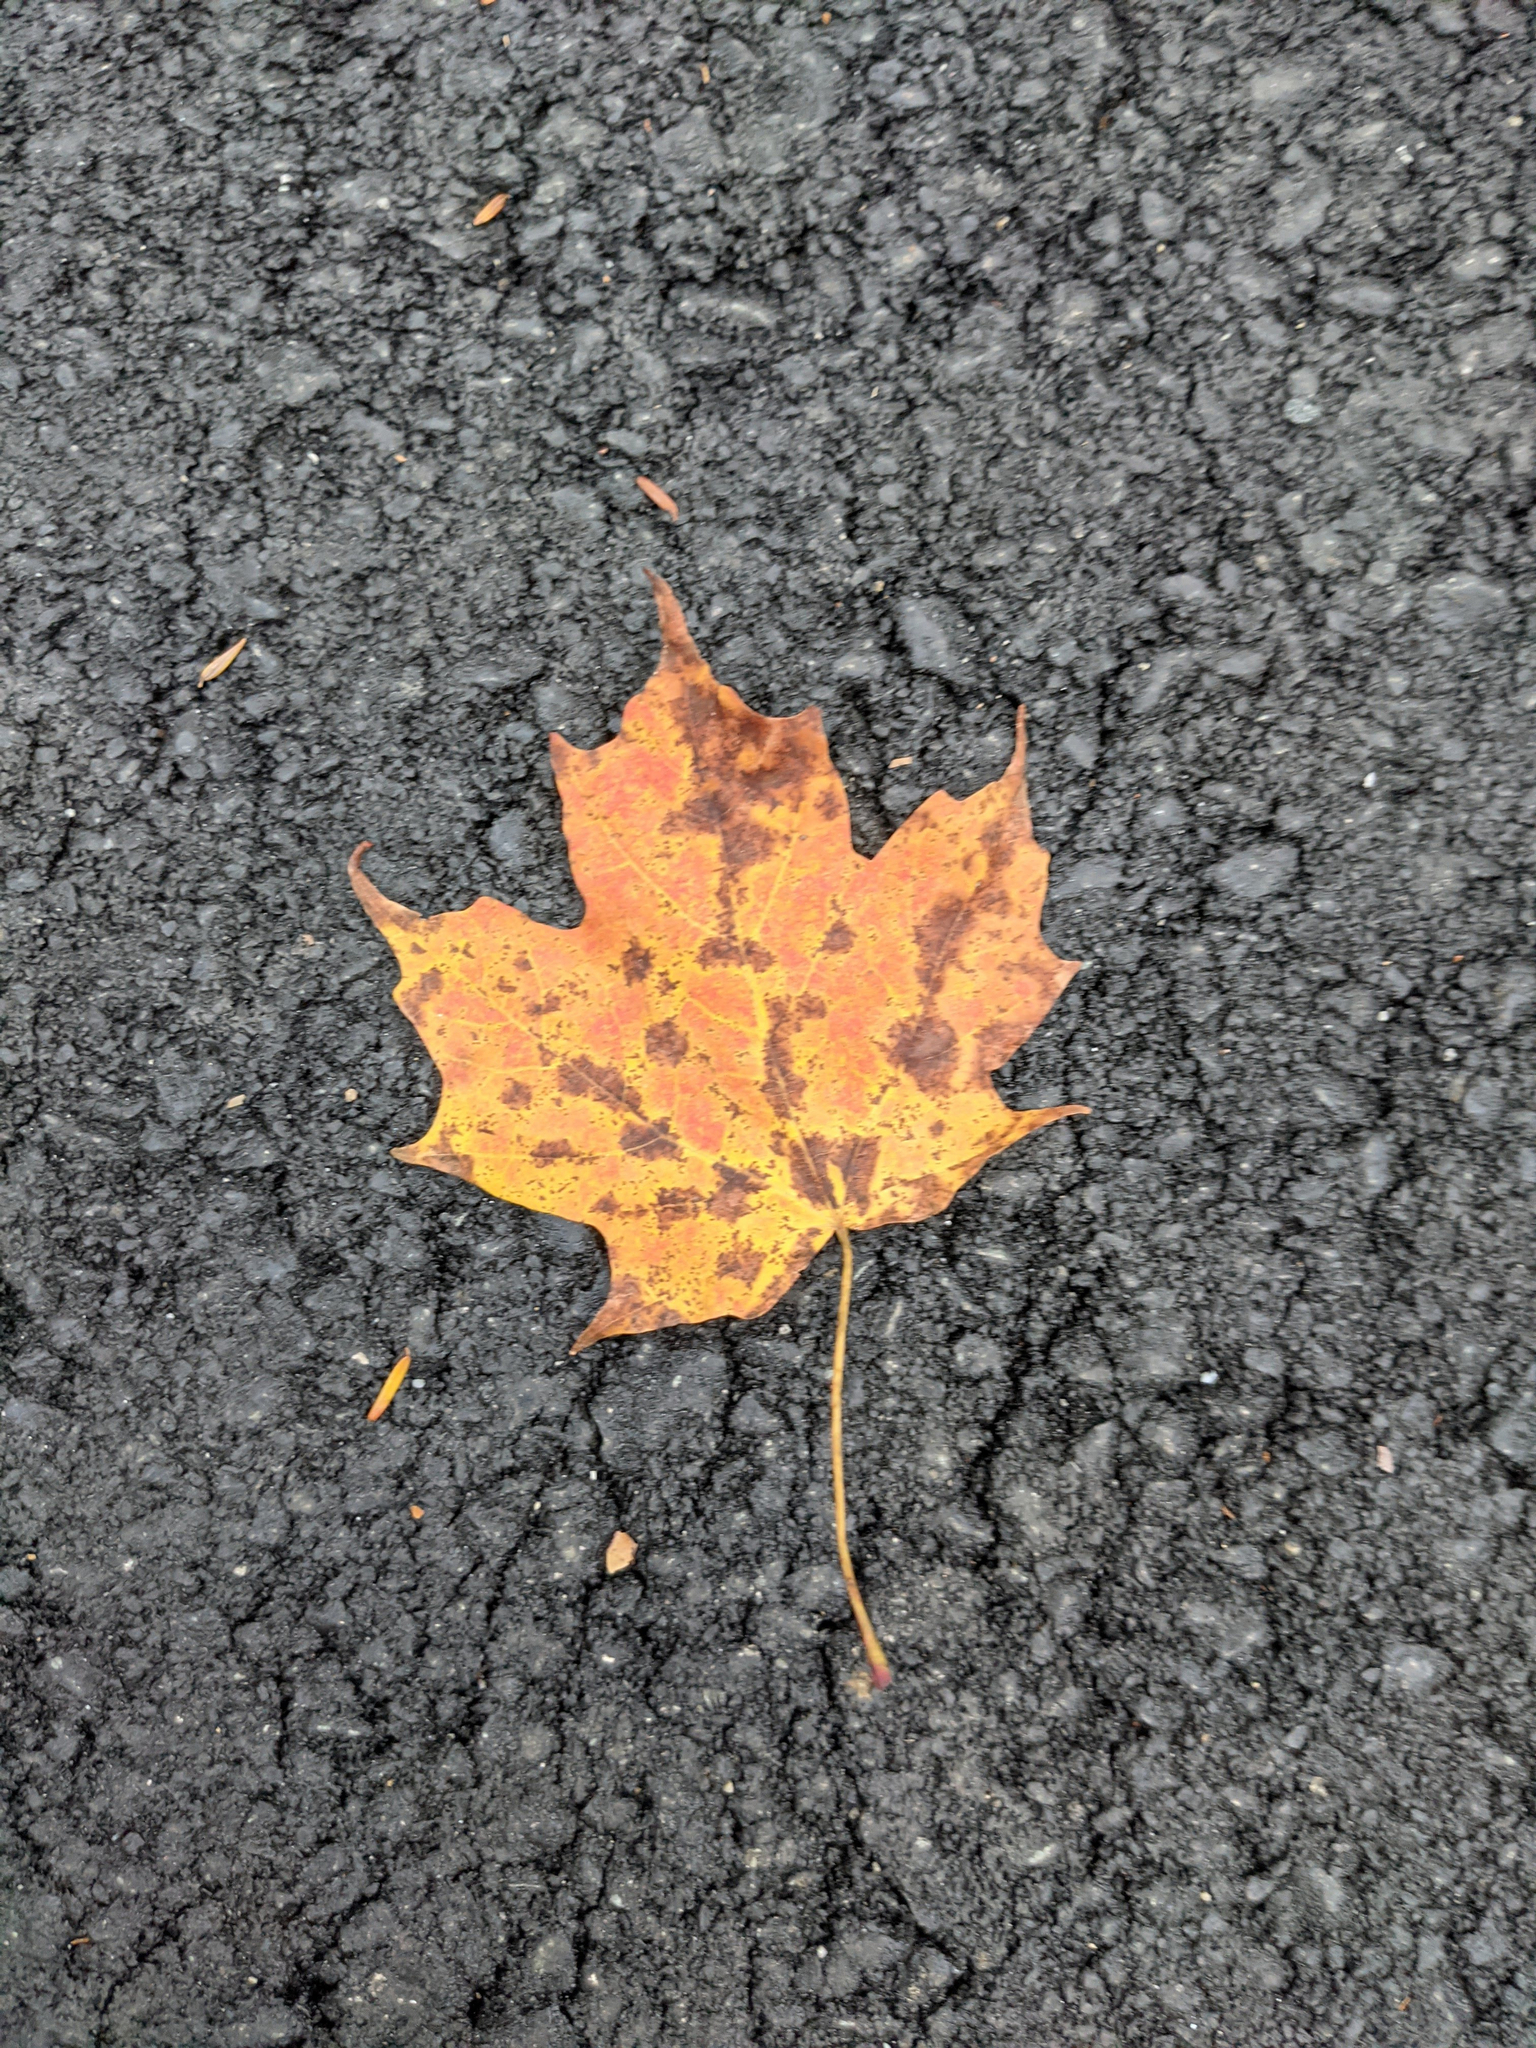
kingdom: Plantae
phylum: Tracheophyta
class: Magnoliopsida
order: Sapindales
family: Sapindaceae
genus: Acer
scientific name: Acer saccharum
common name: Sugar maple
